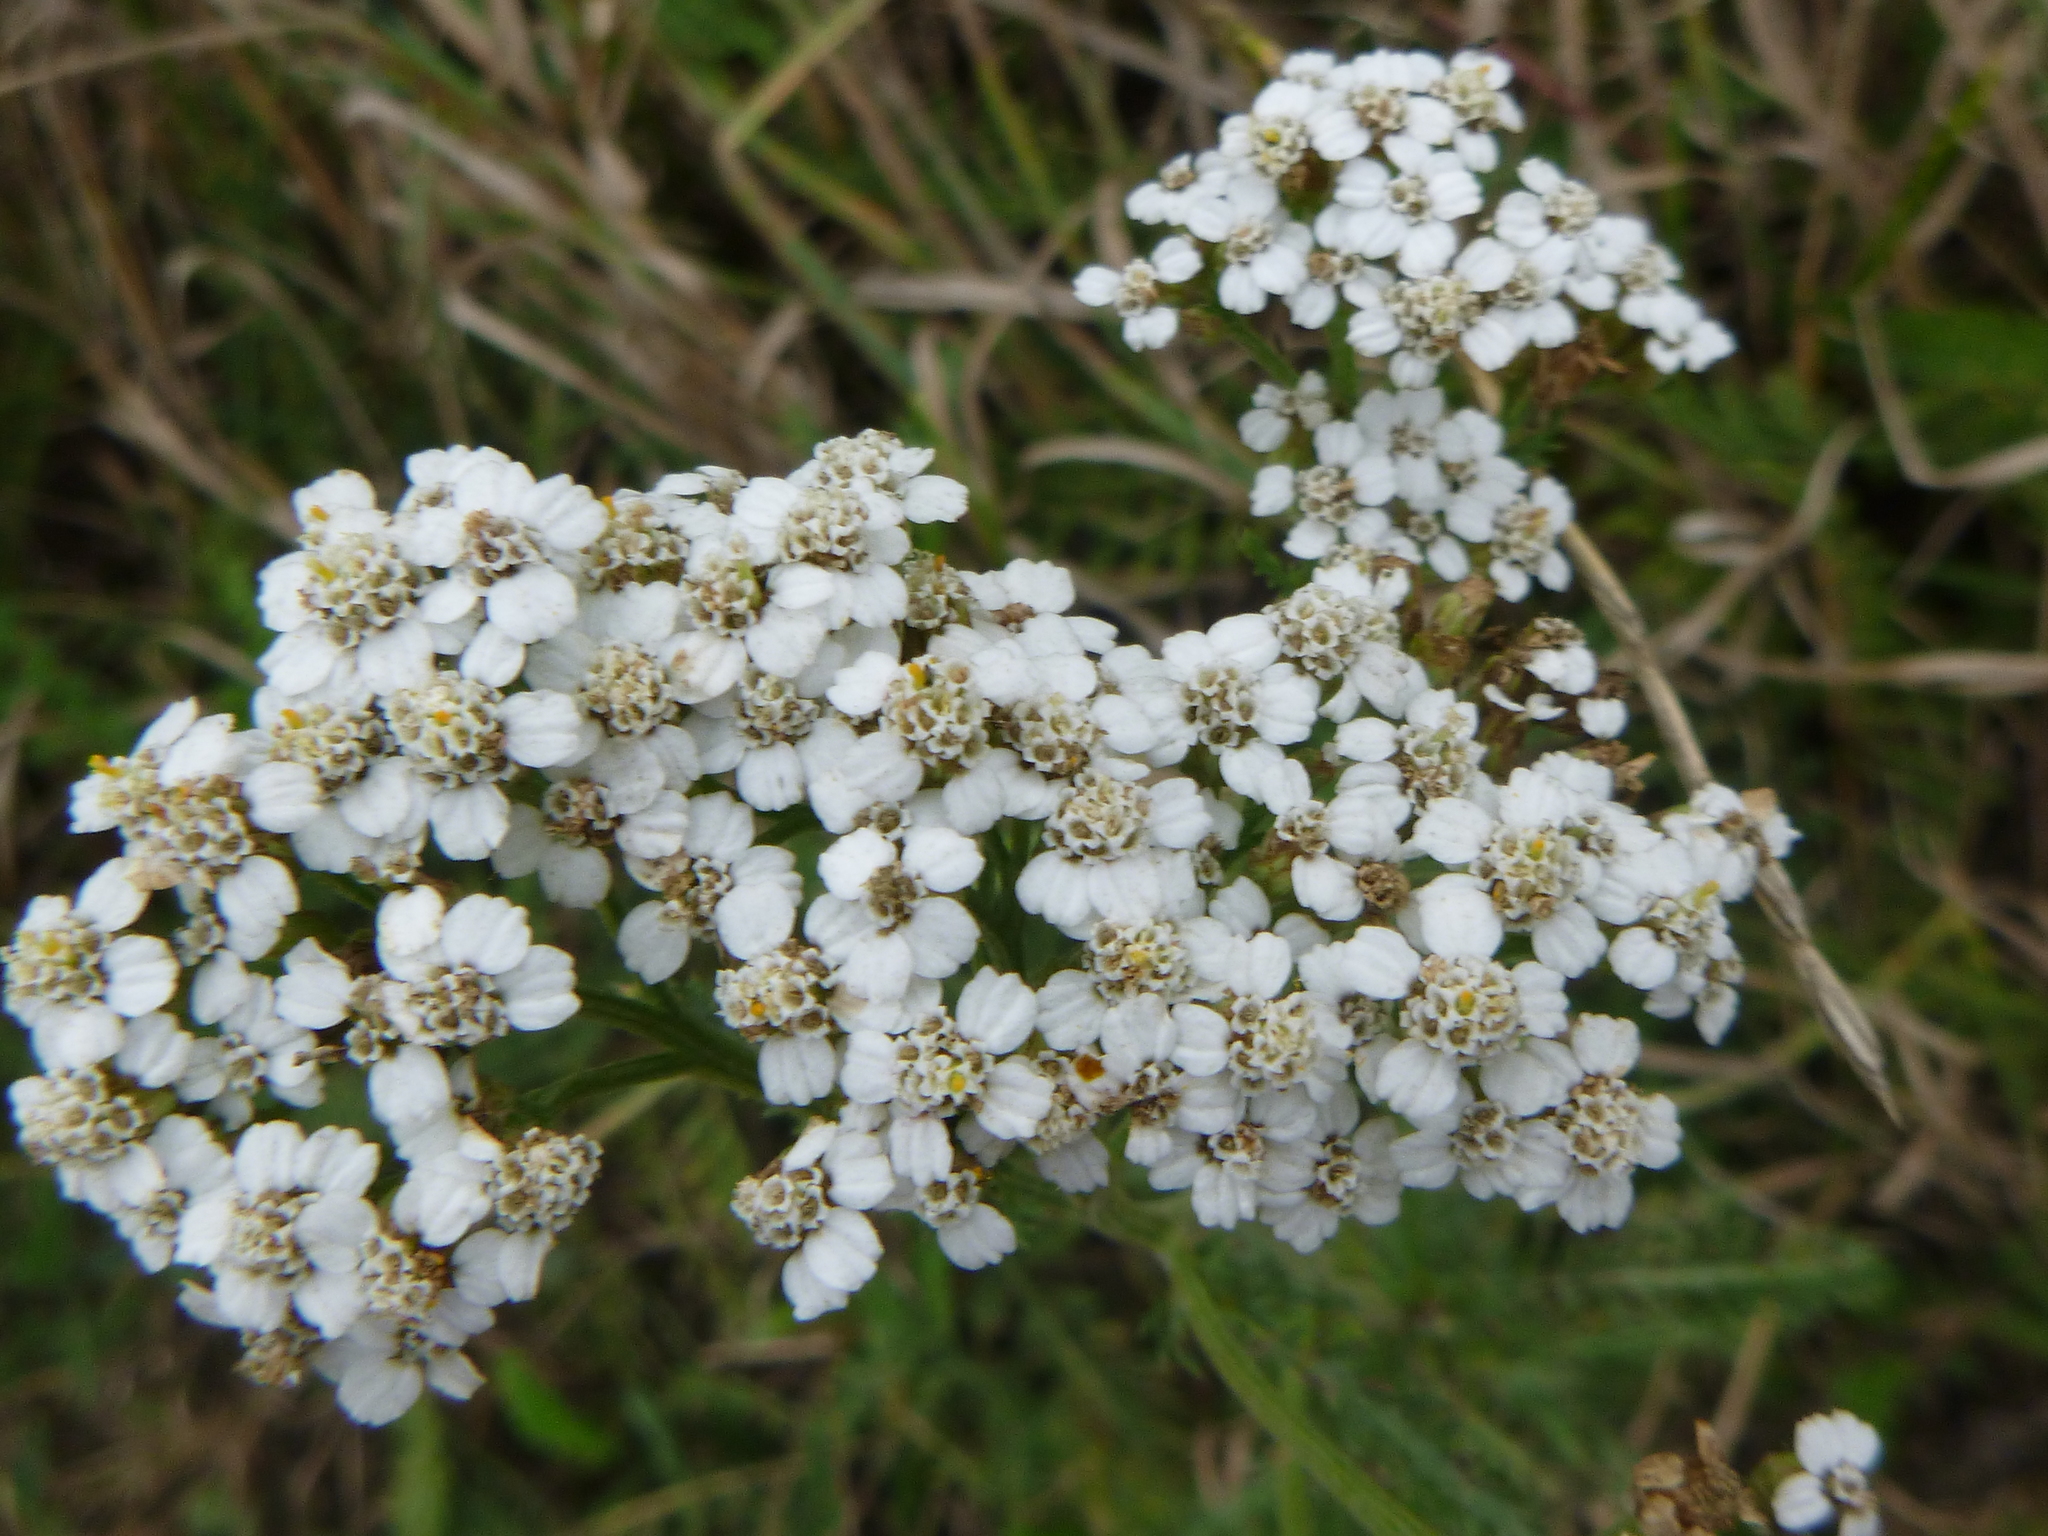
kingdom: Plantae
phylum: Tracheophyta
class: Magnoliopsida
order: Asterales
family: Asteraceae
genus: Achillea
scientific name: Achillea millefolium
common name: Yarrow
